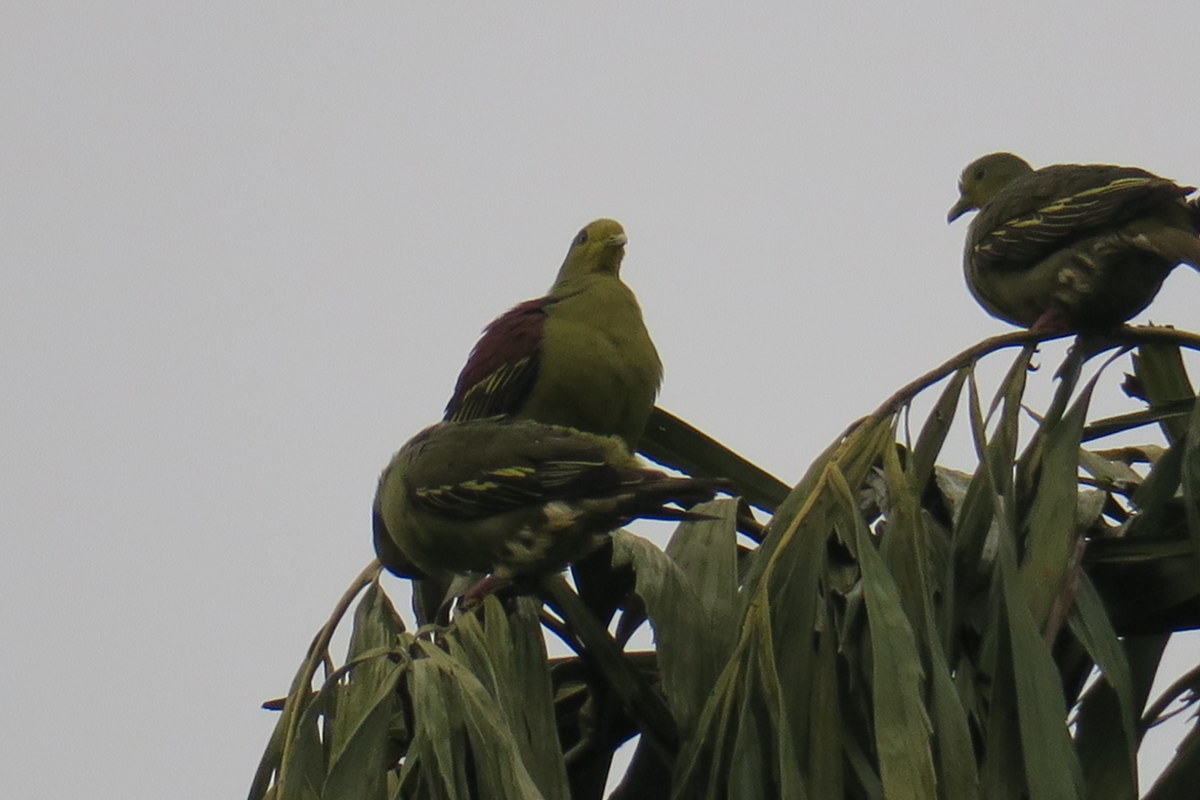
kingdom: Animalia
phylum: Chordata
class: Aves
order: Columbiformes
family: Columbidae
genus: Treron
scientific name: Treron pompadora
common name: Pompadour green pigeon
